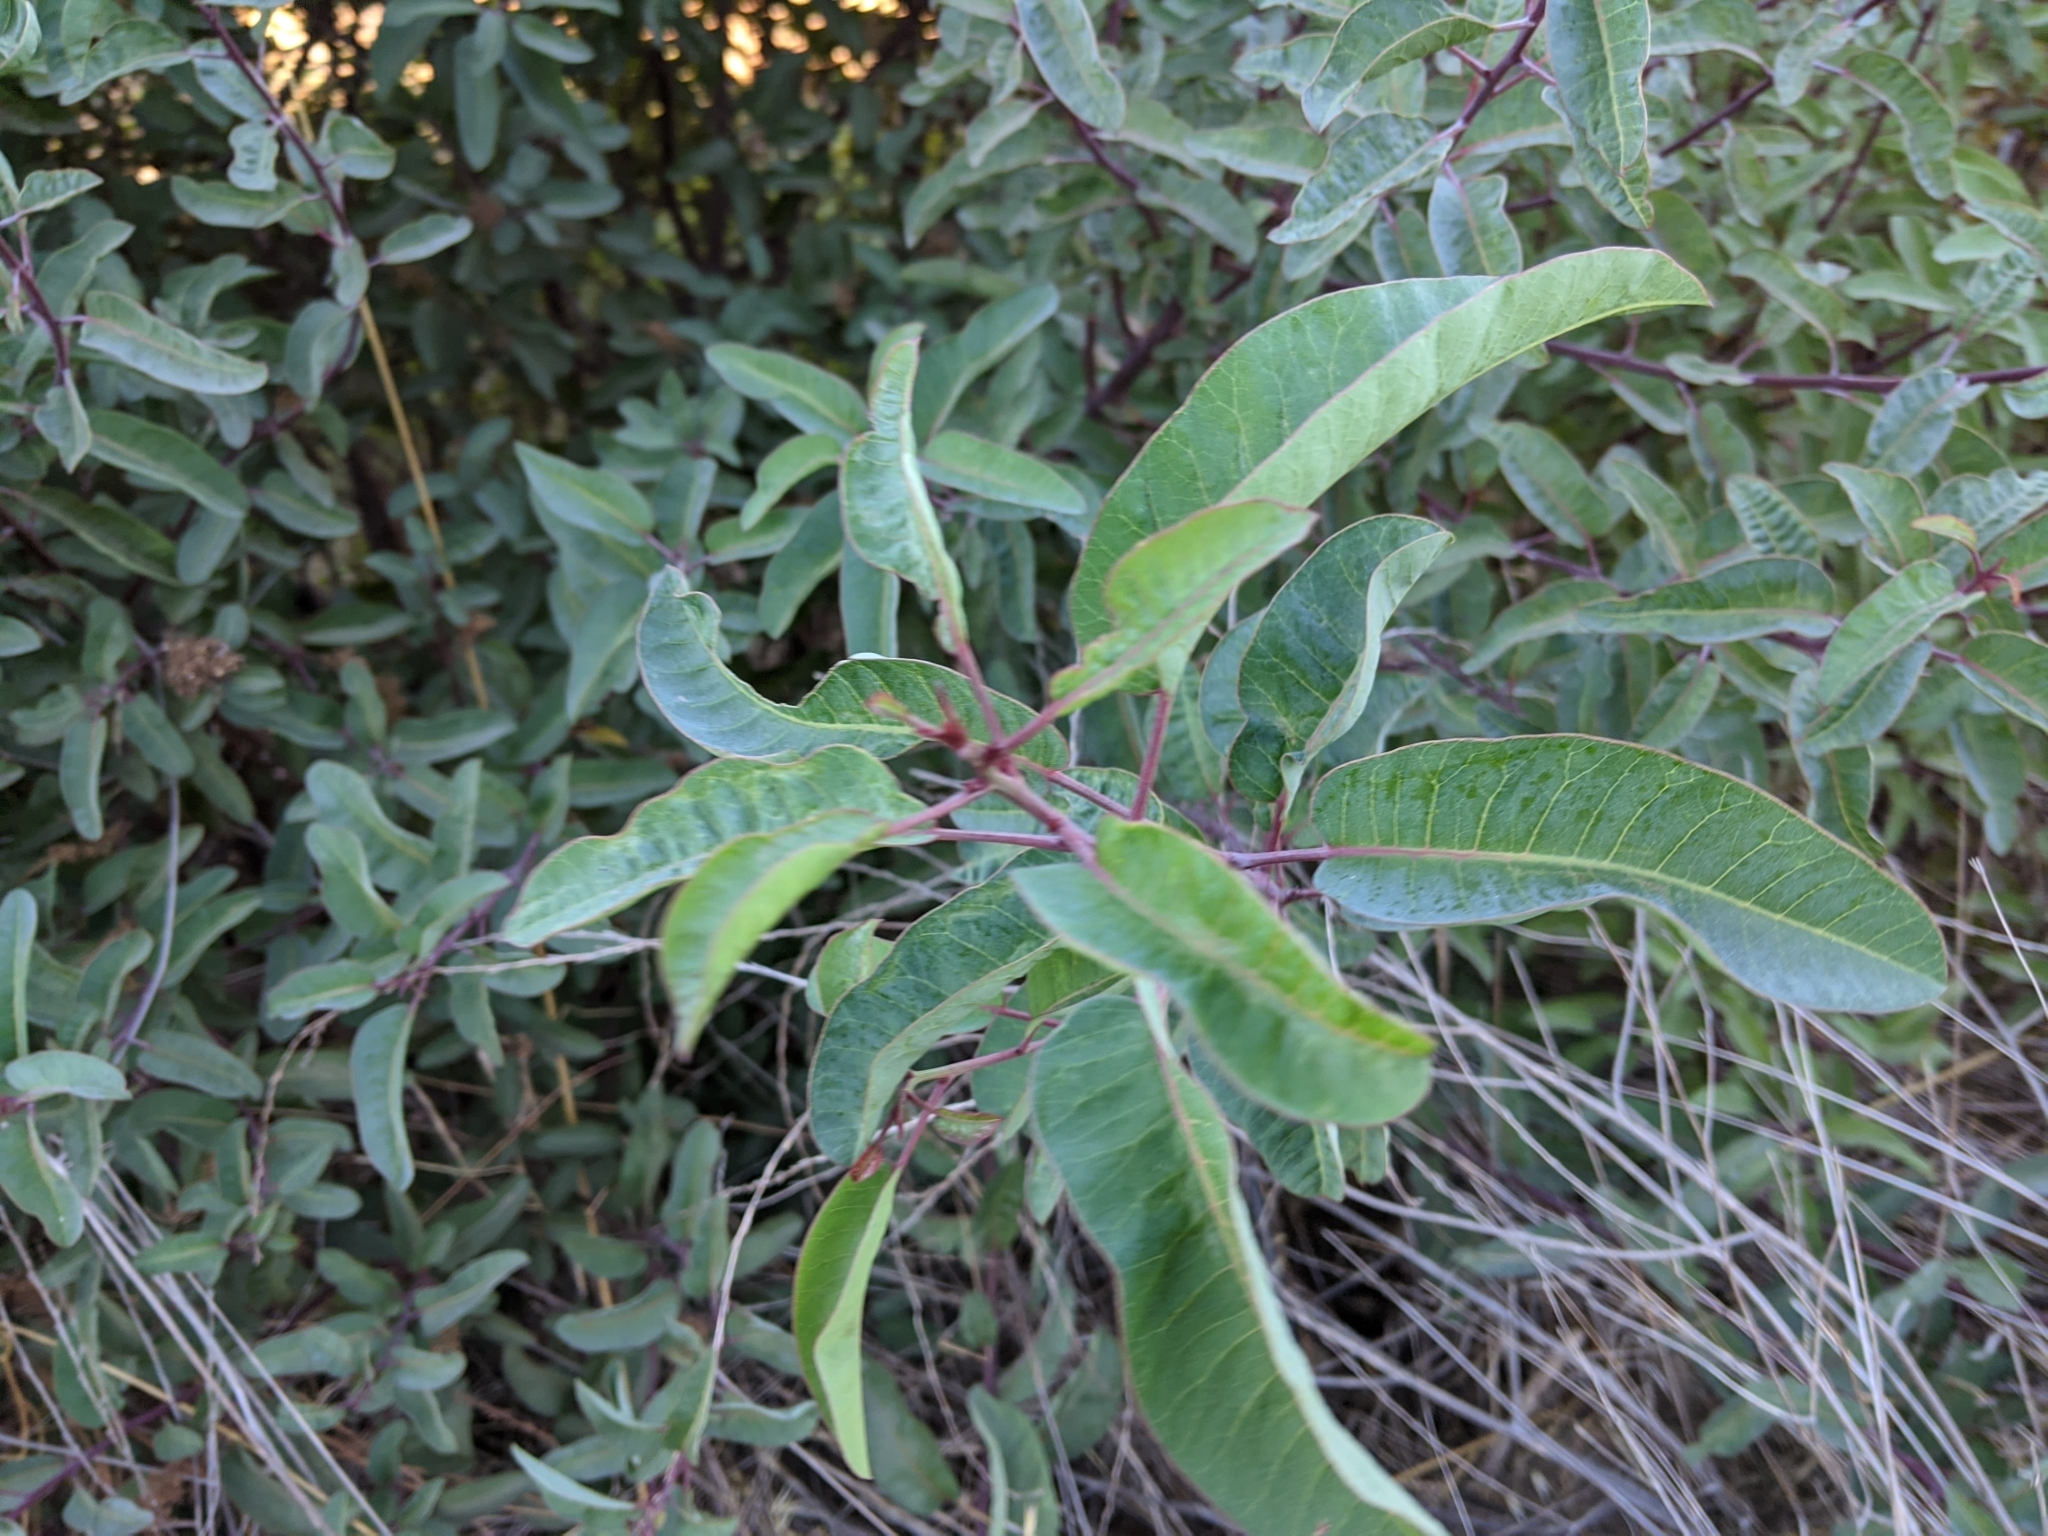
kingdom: Plantae
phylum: Tracheophyta
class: Magnoliopsida
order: Sapindales
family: Anacardiaceae
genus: Malosma
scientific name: Malosma laurina
